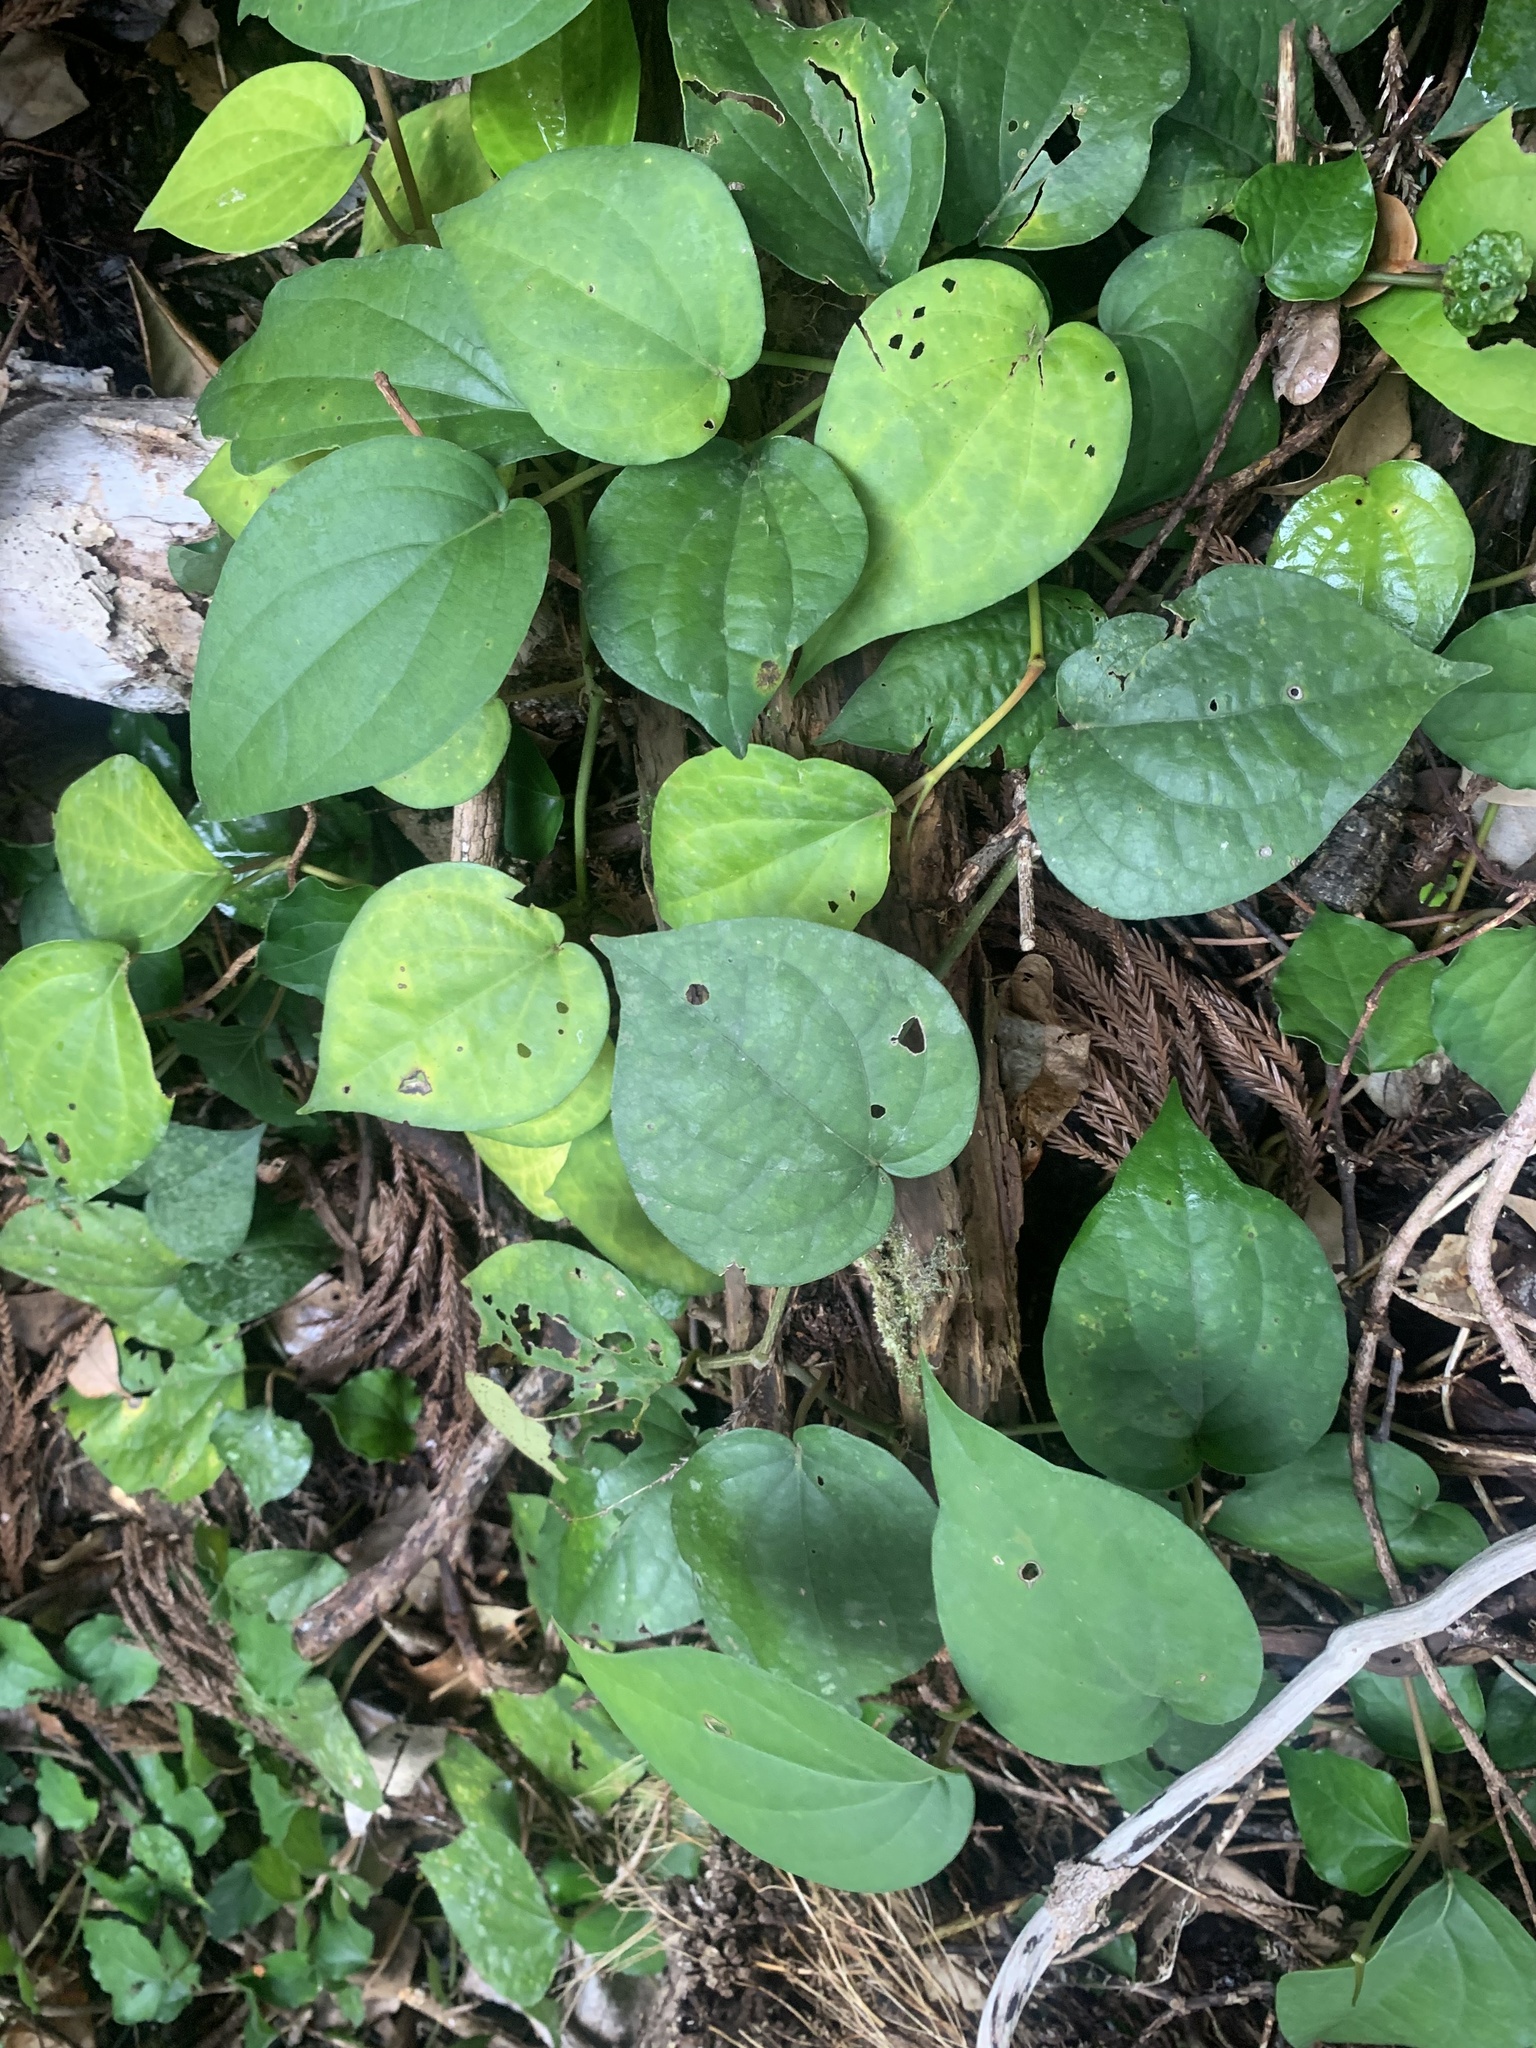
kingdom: Plantae
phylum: Tracheophyta
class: Magnoliopsida
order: Piperales
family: Piperaceae
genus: Piper
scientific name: Piper kadsura
